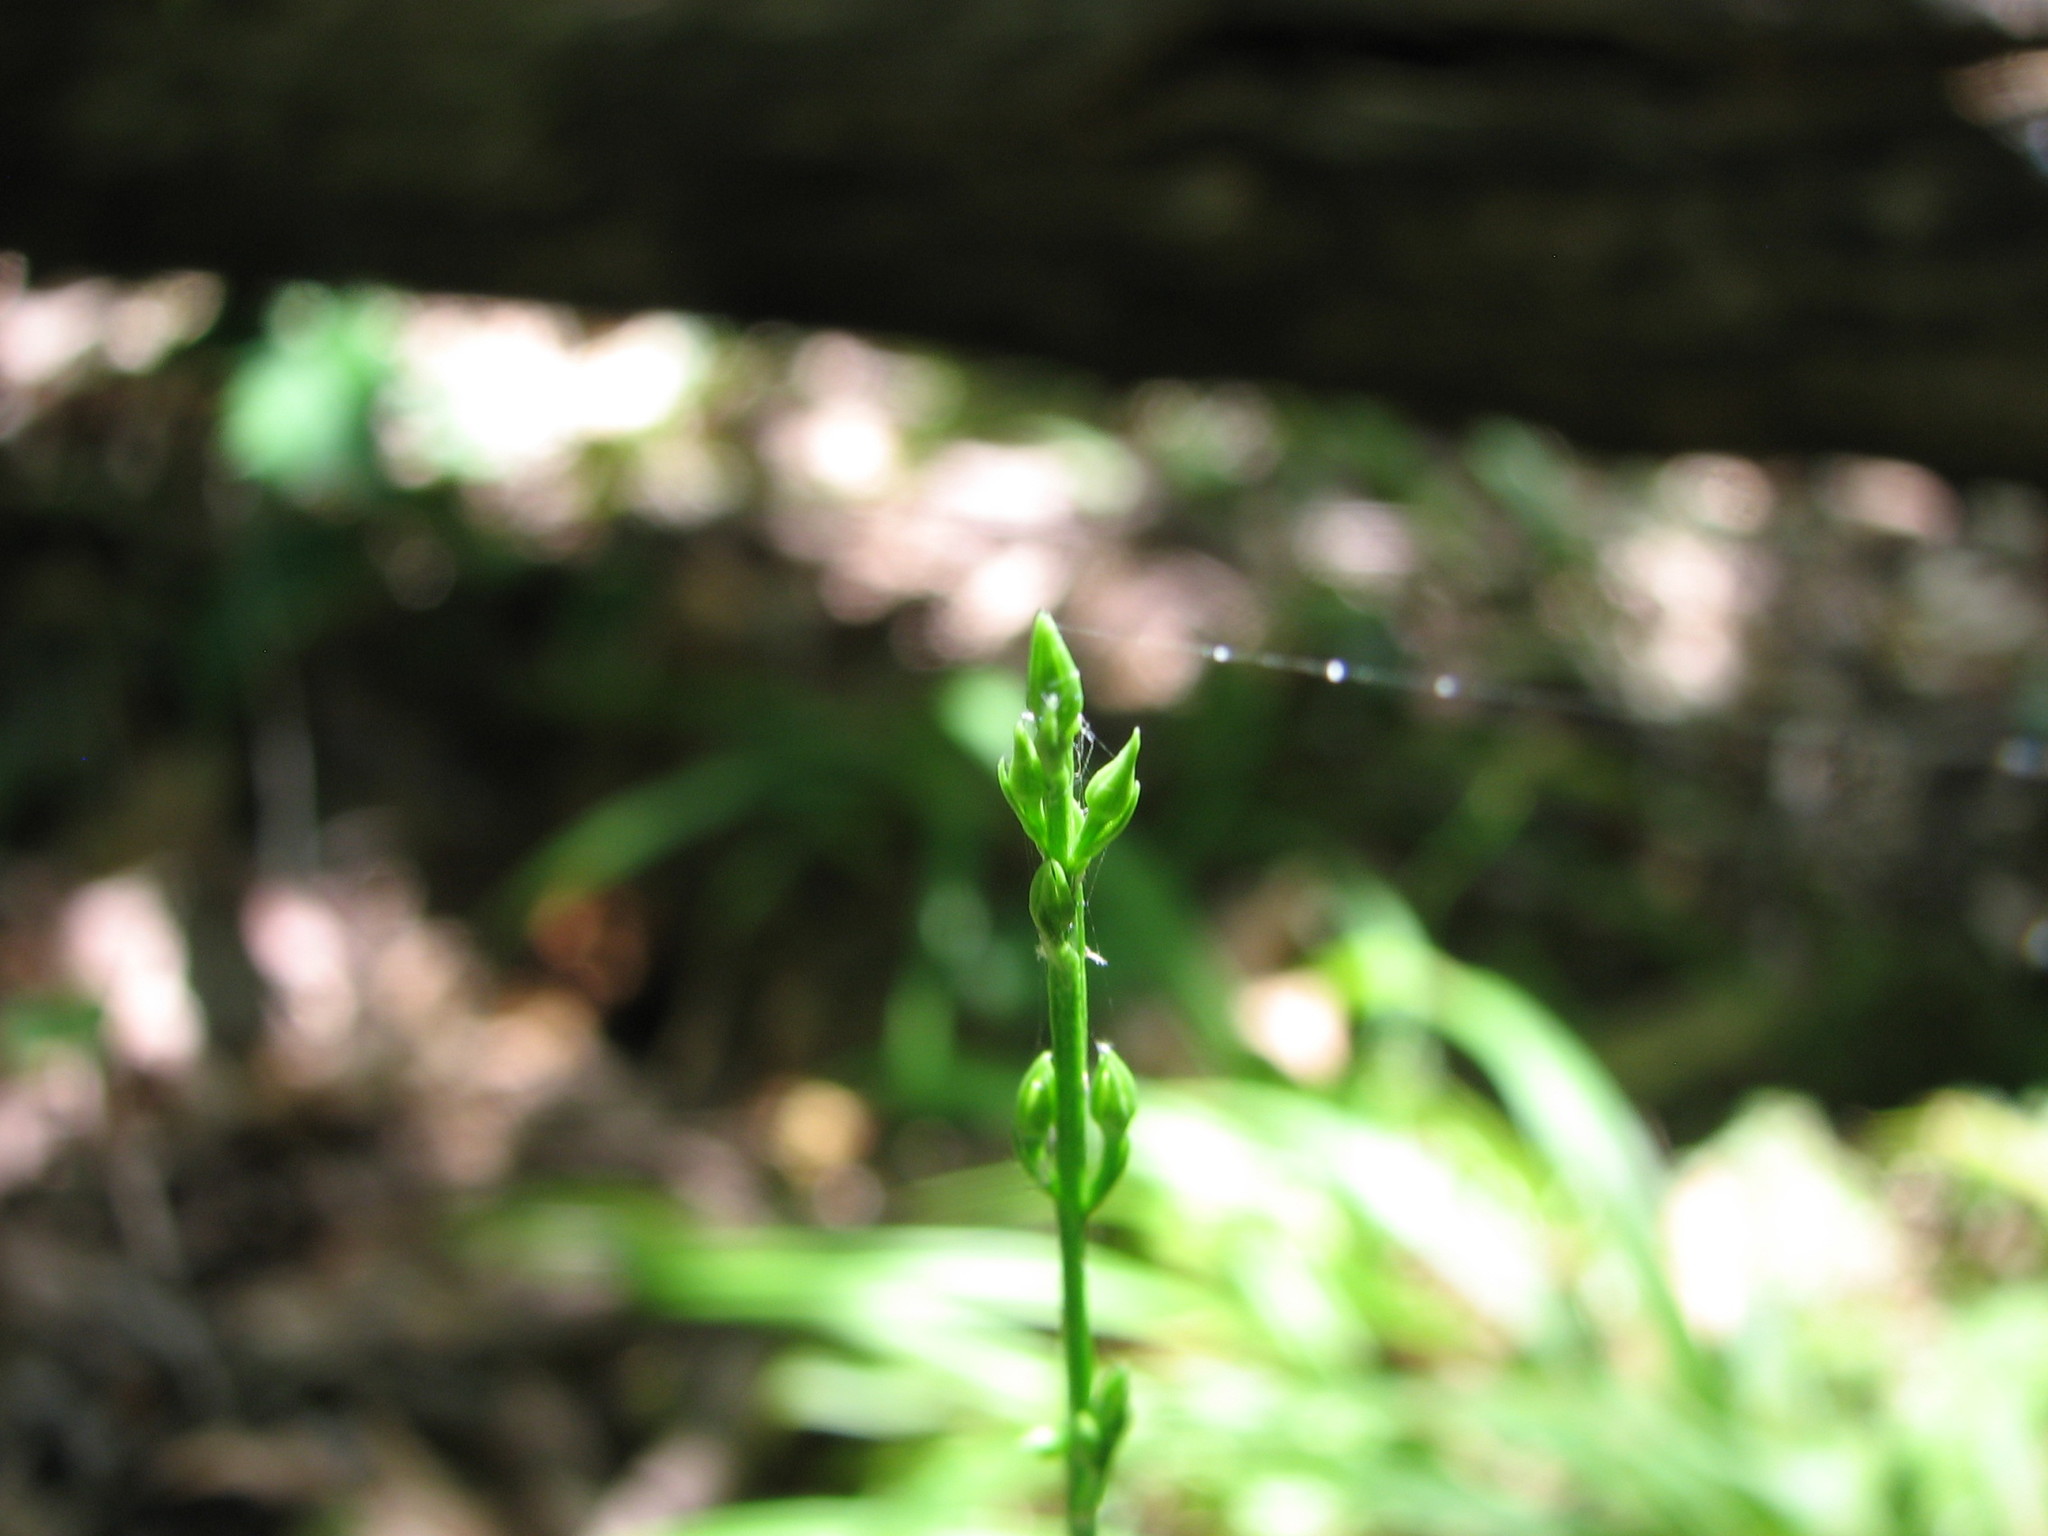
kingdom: Plantae
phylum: Tracheophyta
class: Magnoliopsida
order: Gentianales
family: Gentianaceae
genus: Bartonia
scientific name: Bartonia virginica
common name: Yellow bartonia
